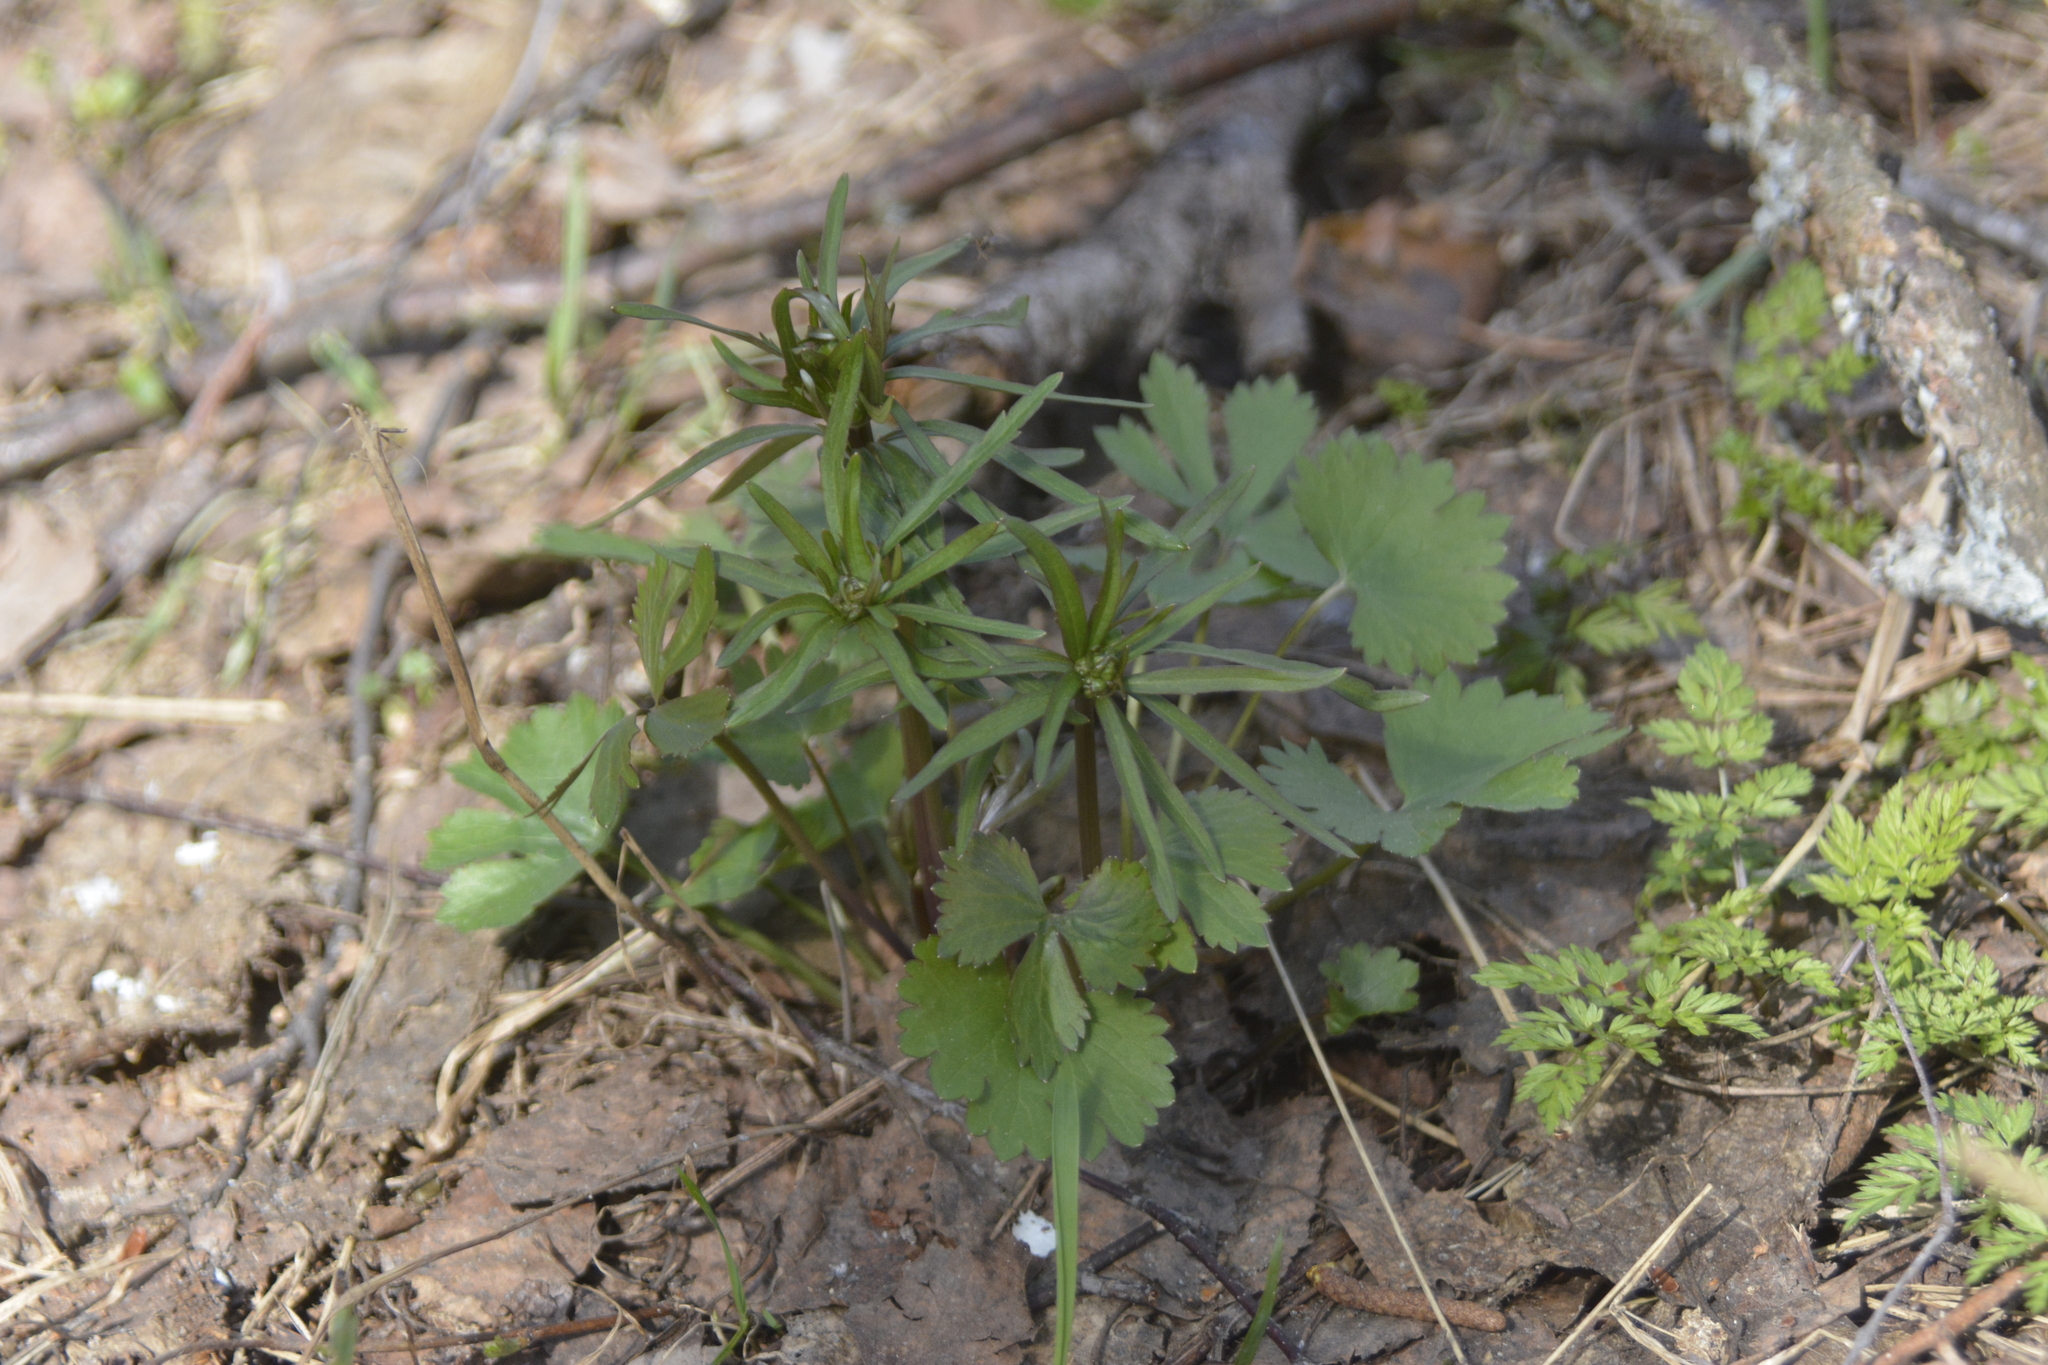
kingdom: Plantae
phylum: Tracheophyta
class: Magnoliopsida
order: Ranunculales
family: Ranunculaceae
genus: Ranunculus
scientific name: Ranunculus auricomus
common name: Goldilocks buttercup
